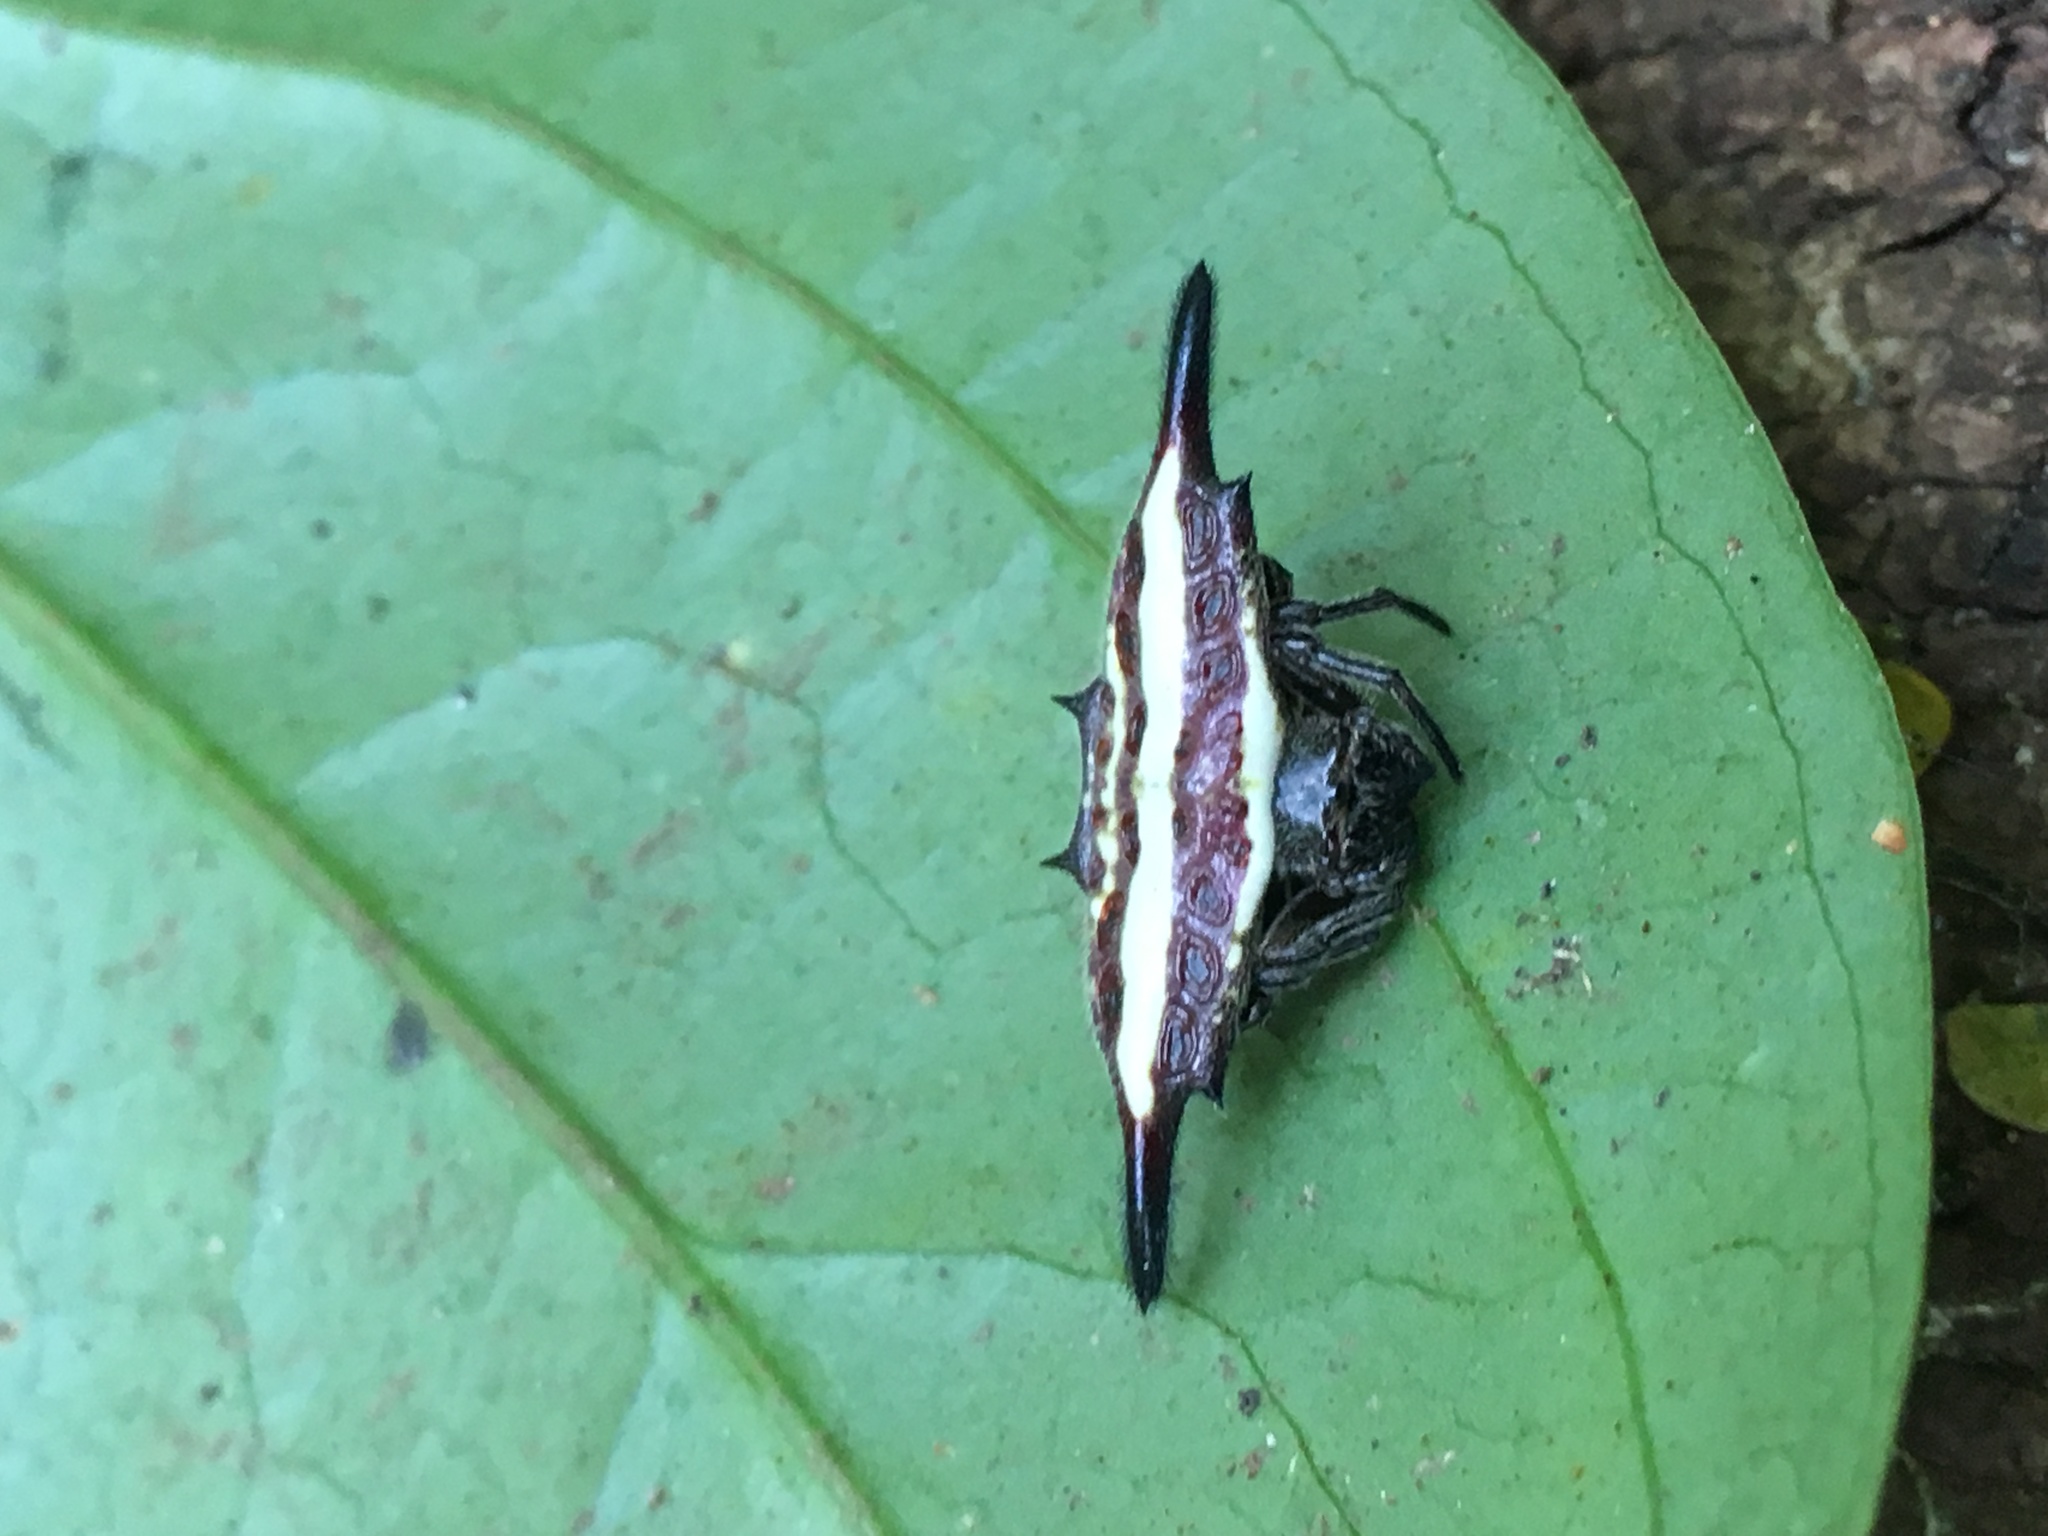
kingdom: Animalia
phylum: Arthropoda
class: Arachnida
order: Araneae
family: Araneidae
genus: Gasteracantha
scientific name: Gasteracantha diardi
